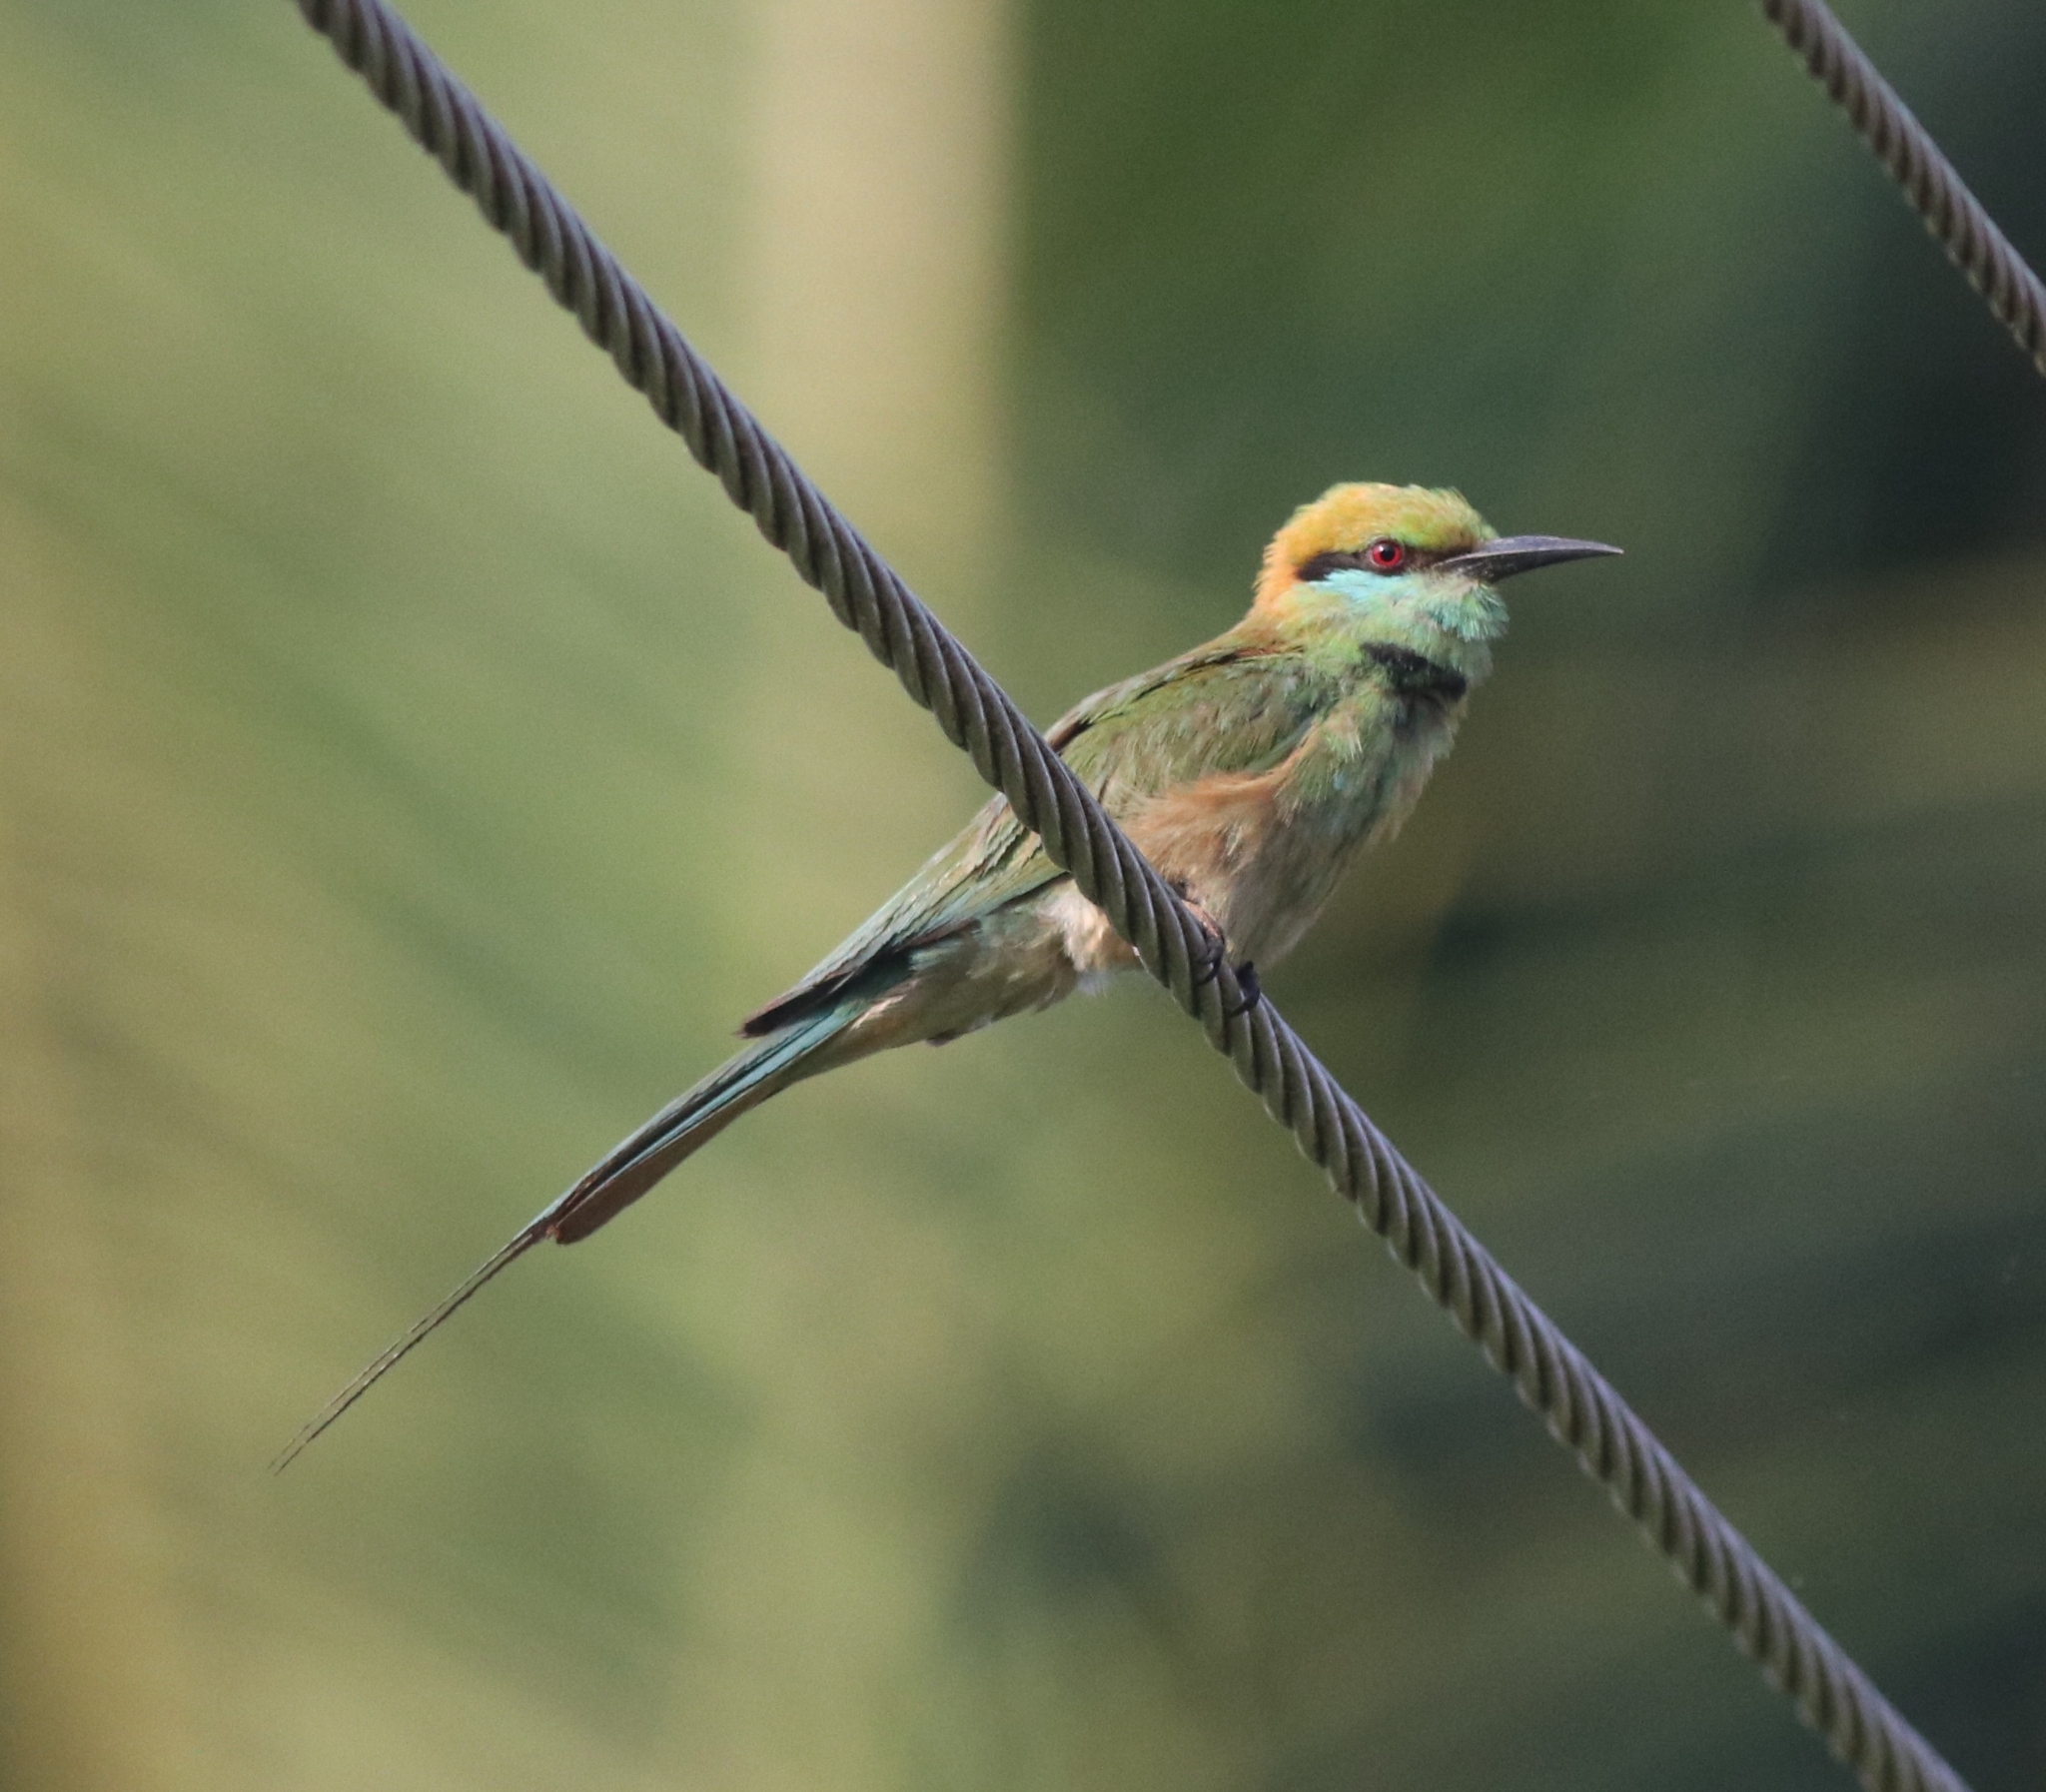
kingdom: Animalia
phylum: Chordata
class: Aves
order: Coraciiformes
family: Meropidae
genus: Merops
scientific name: Merops orientalis
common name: Green bee-eater
